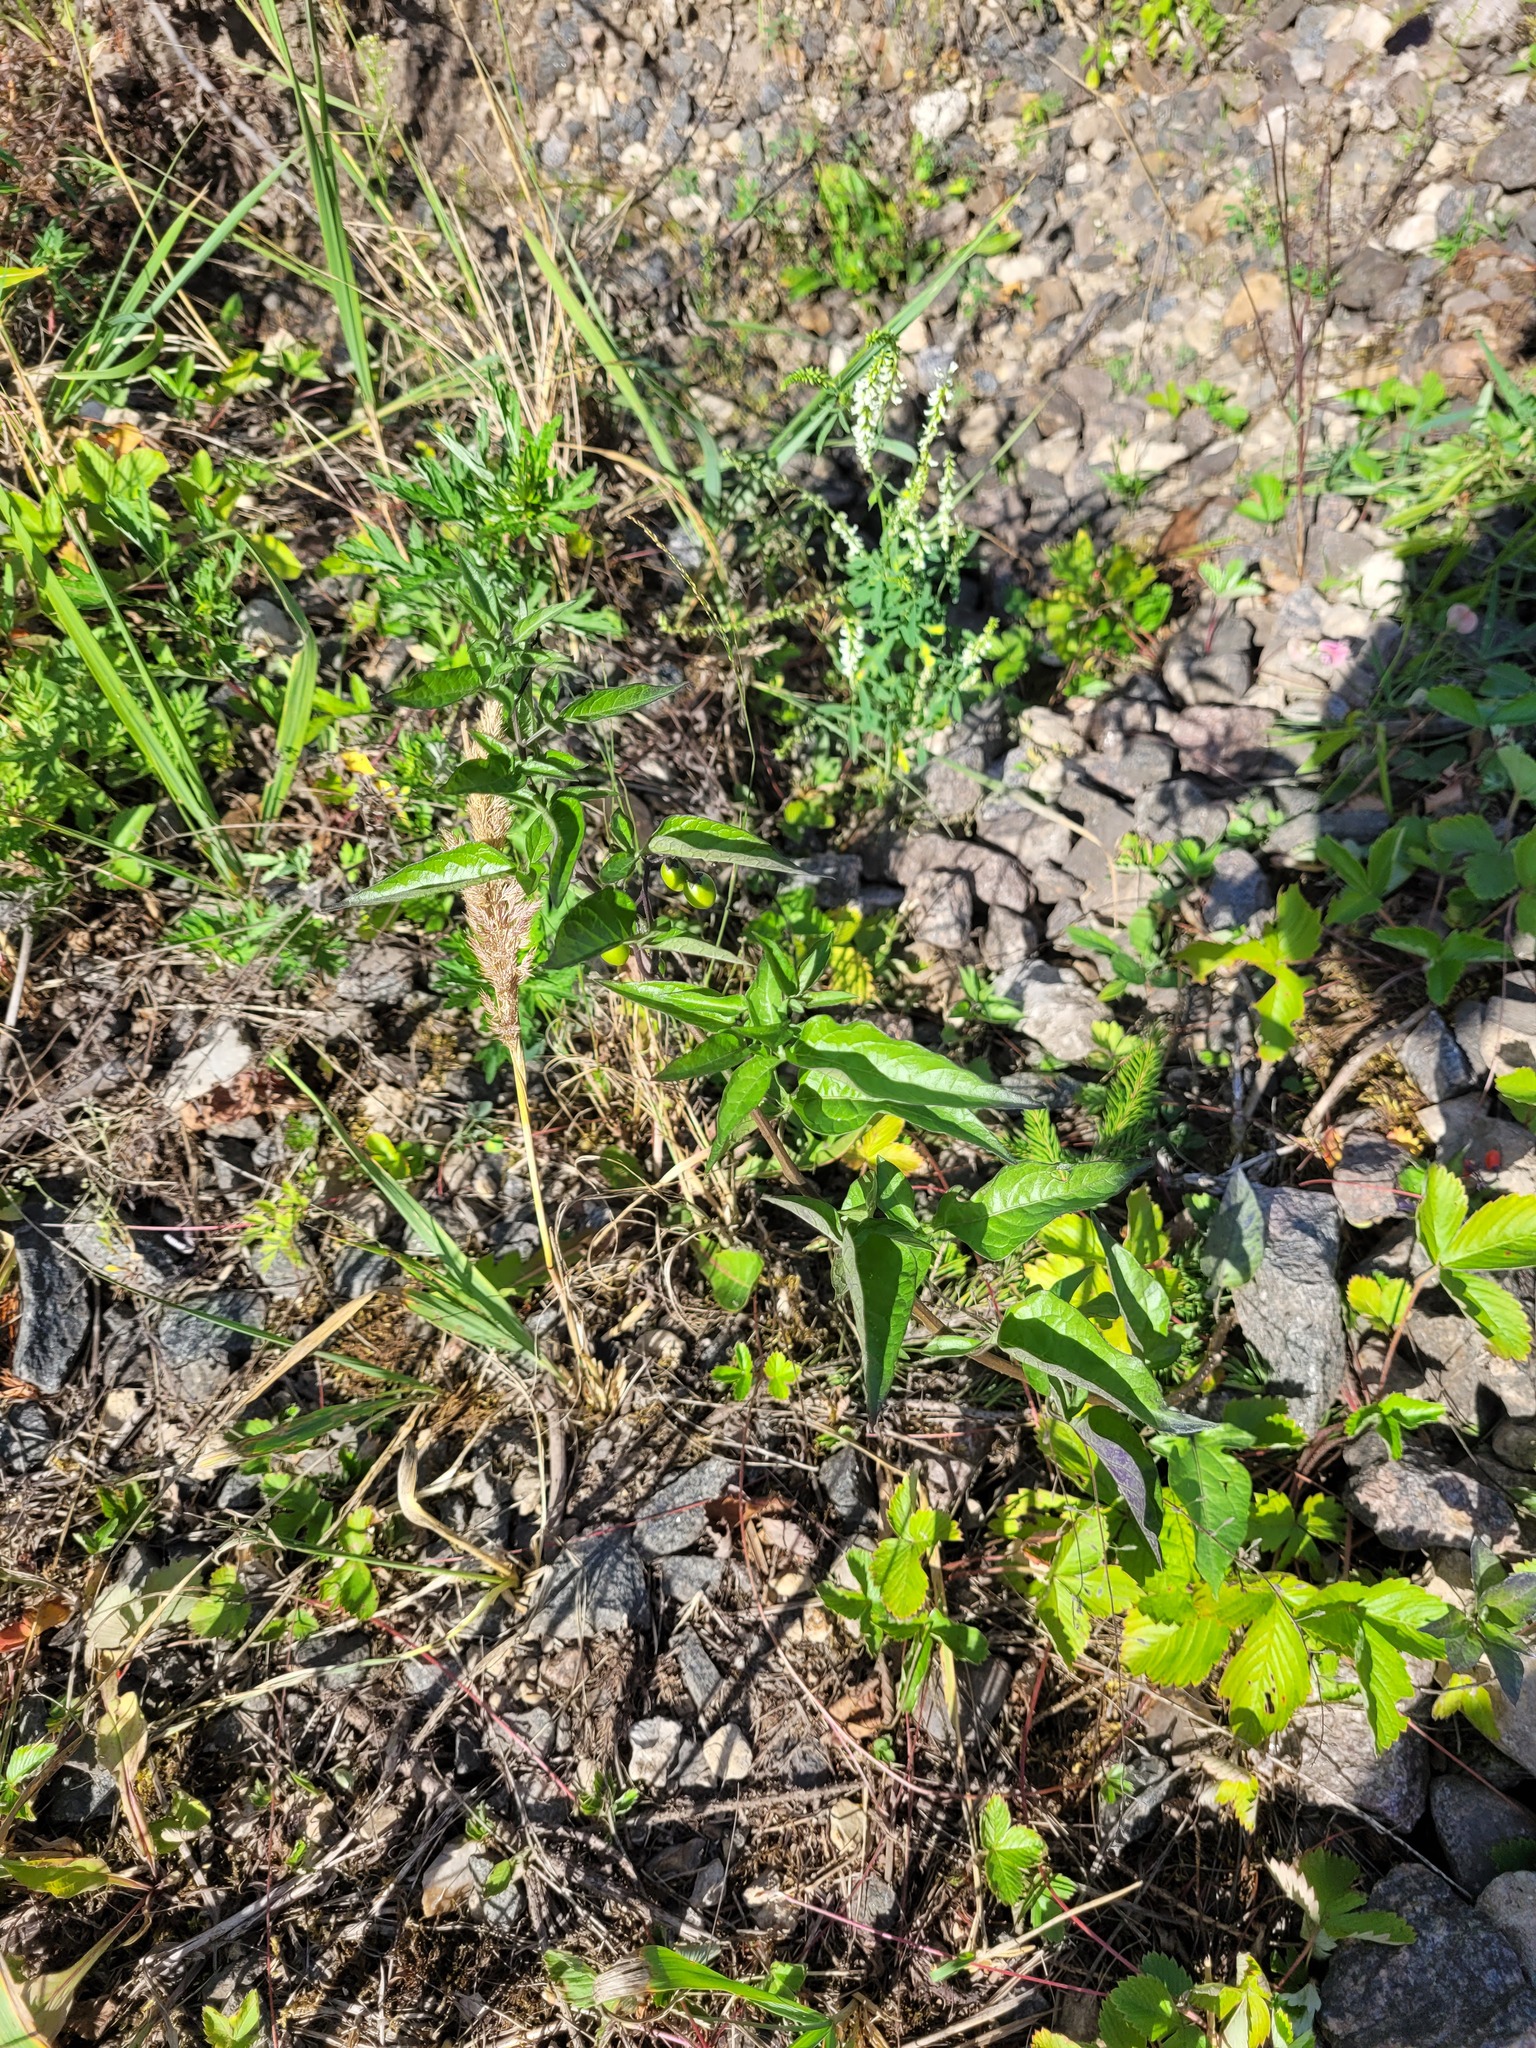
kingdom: Plantae
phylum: Tracheophyta
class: Magnoliopsida
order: Solanales
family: Solanaceae
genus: Solanum
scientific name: Solanum dulcamara
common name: Climbing nightshade
